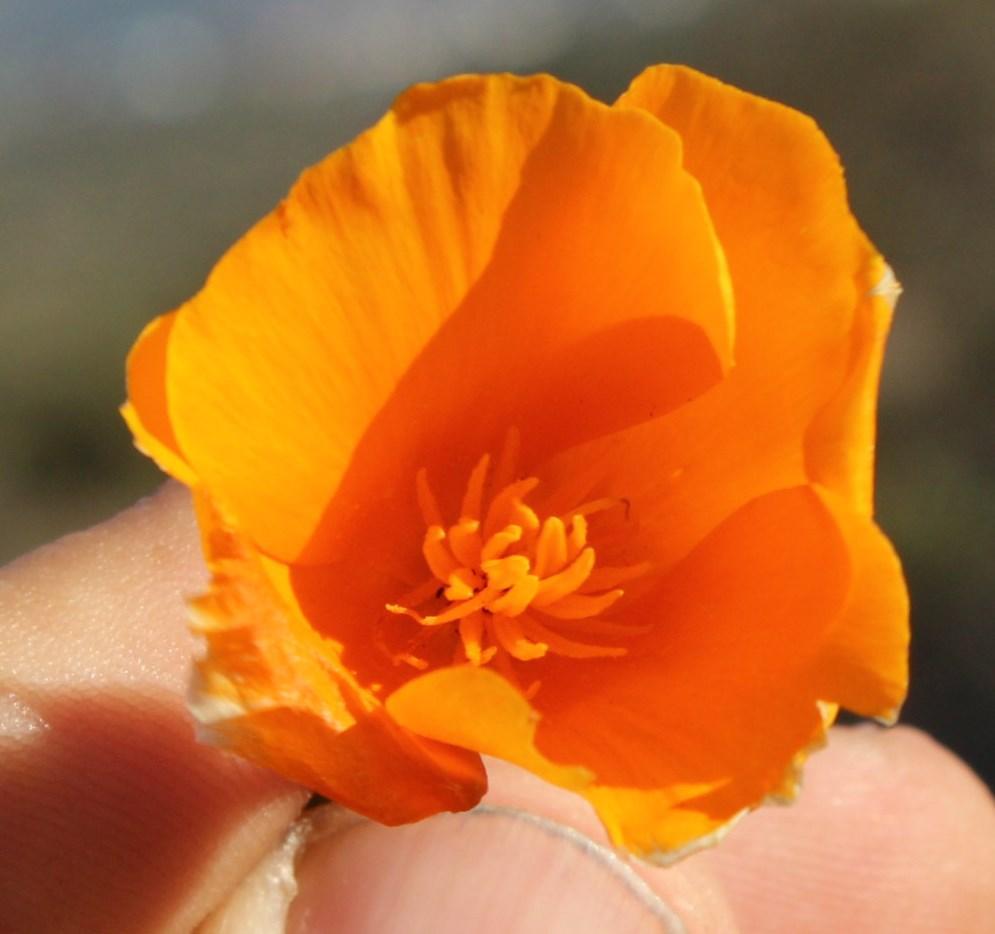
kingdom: Plantae
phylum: Tracheophyta
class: Magnoliopsida
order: Ranunculales
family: Papaveraceae
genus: Eschscholzia
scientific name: Eschscholzia californica
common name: California poppy
